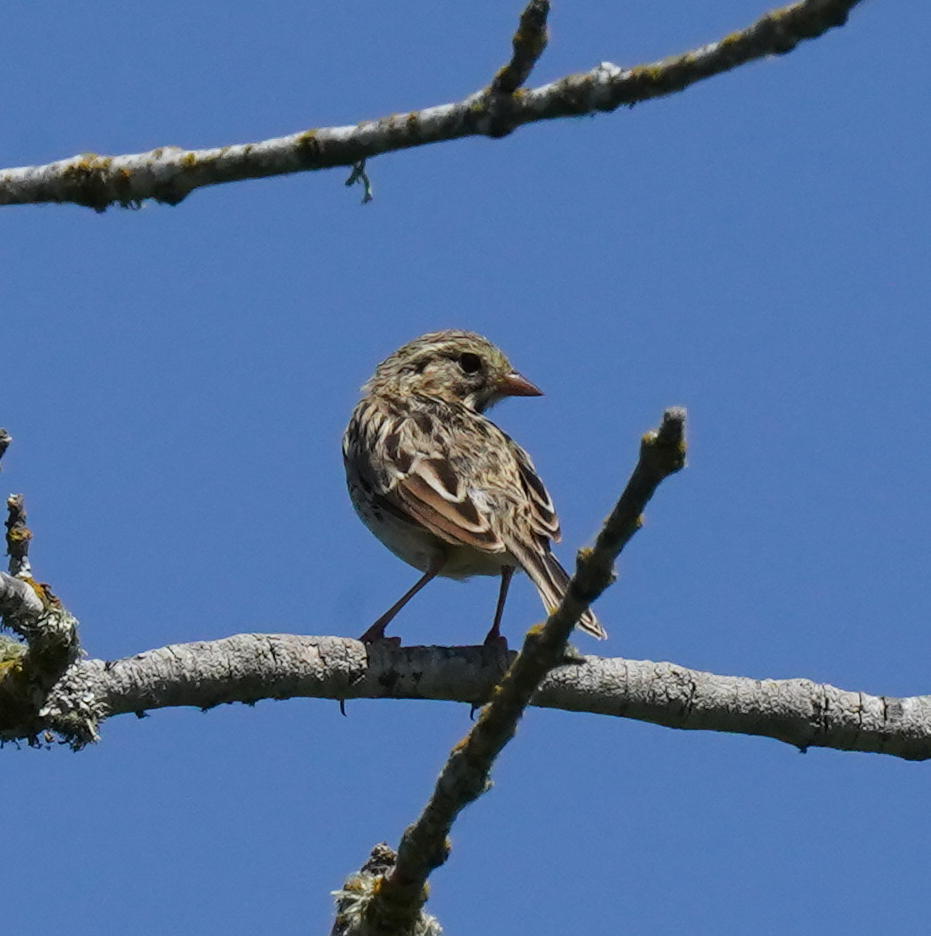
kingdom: Animalia
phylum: Chordata
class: Aves
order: Passeriformes
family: Passerellidae
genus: Passerculus
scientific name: Passerculus sandwichensis
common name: Savannah sparrow
